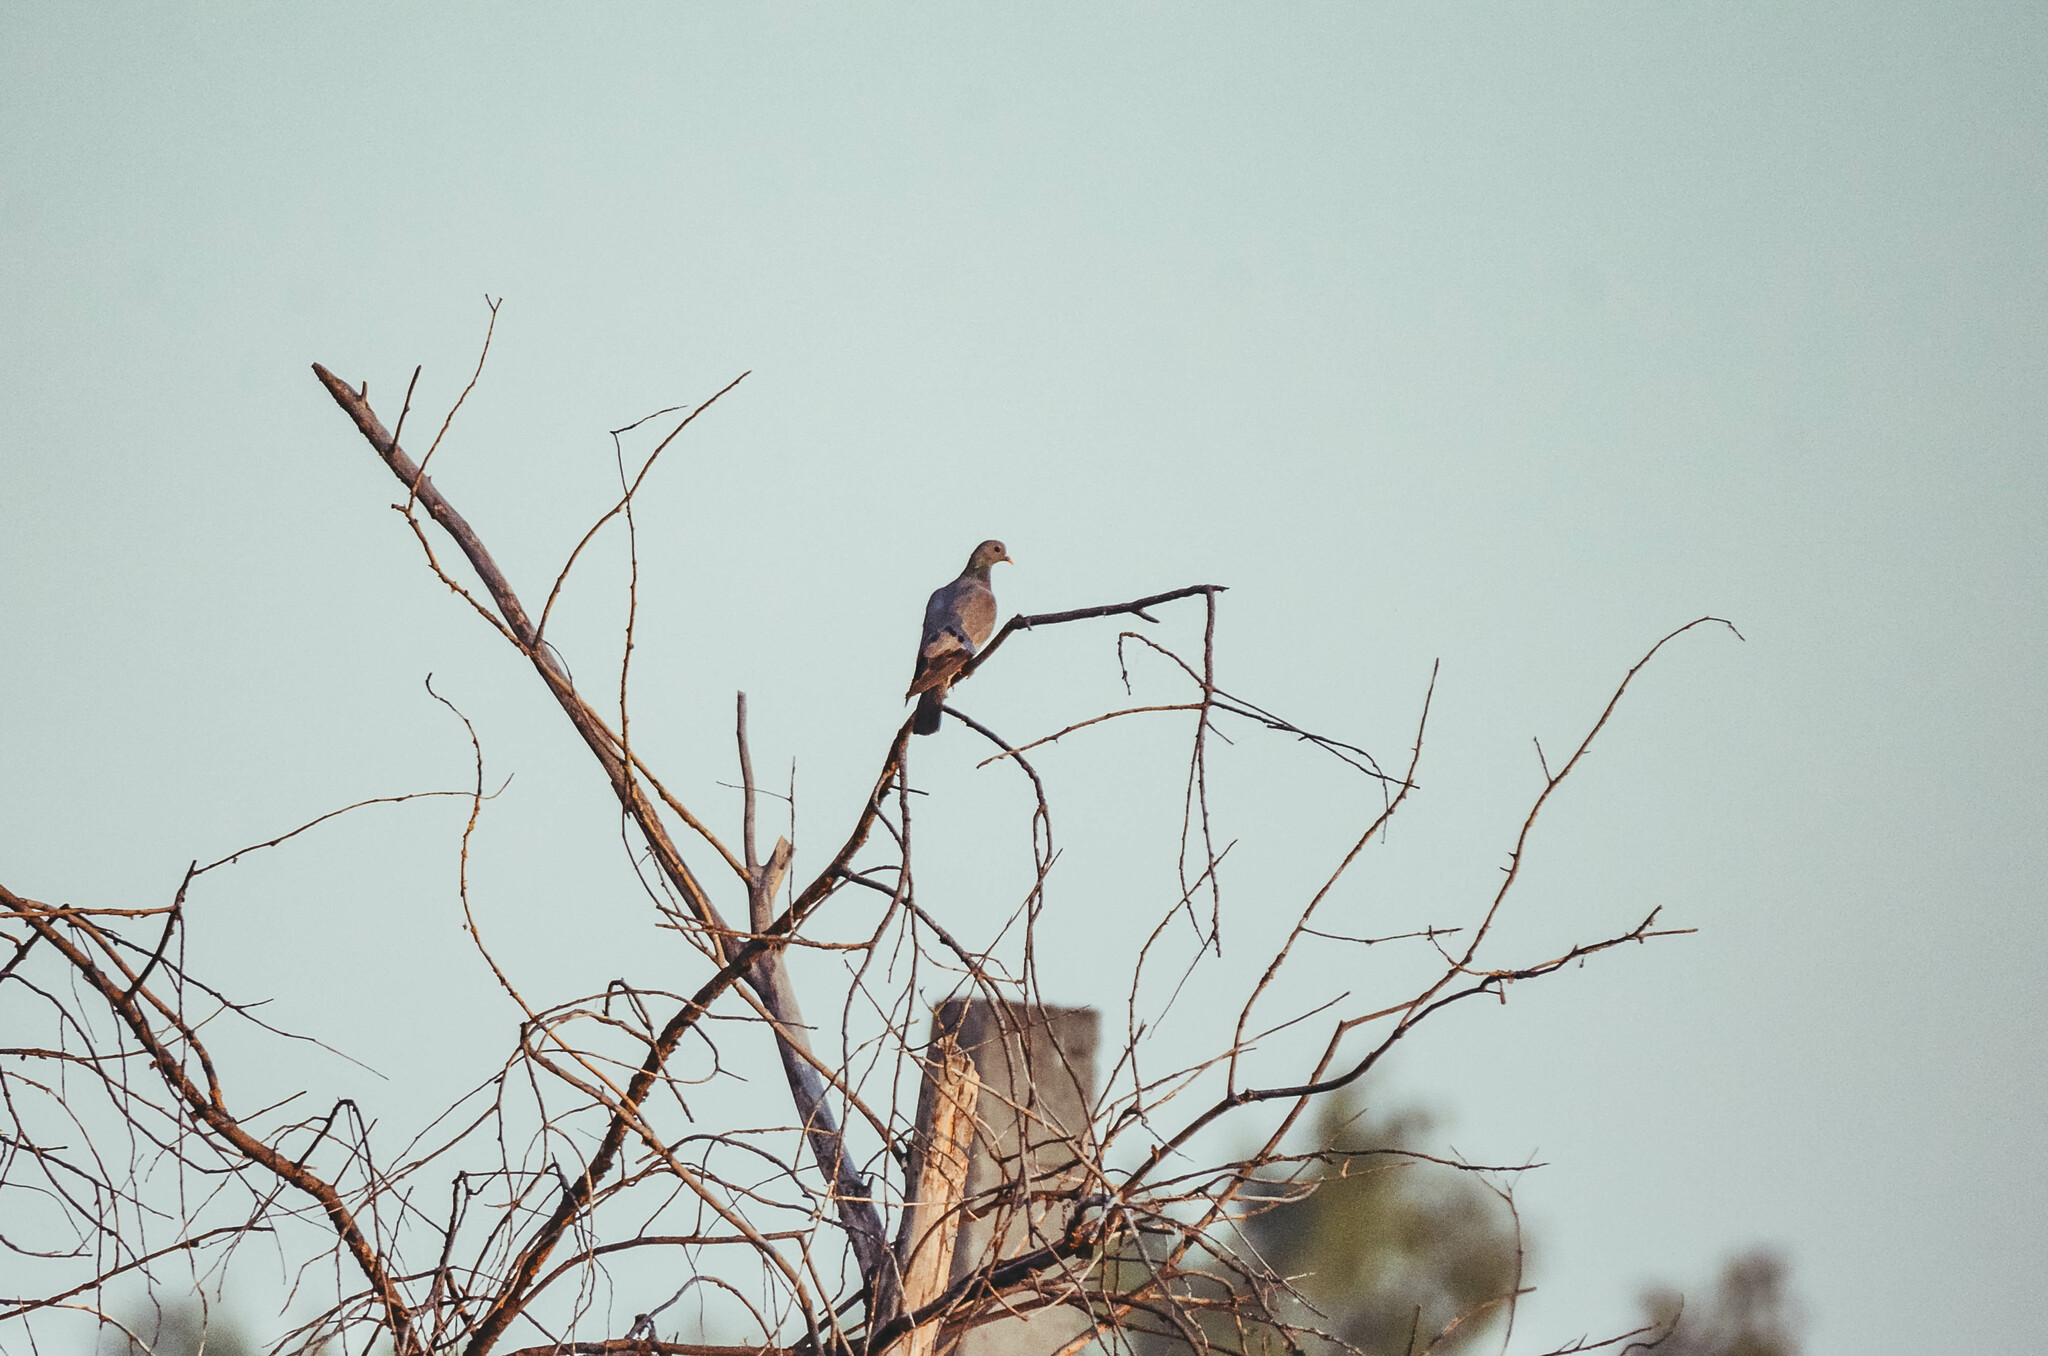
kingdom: Animalia
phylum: Chordata
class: Aves
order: Columbiformes
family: Columbidae
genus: Columba
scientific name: Columba oenas
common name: Stock dove
